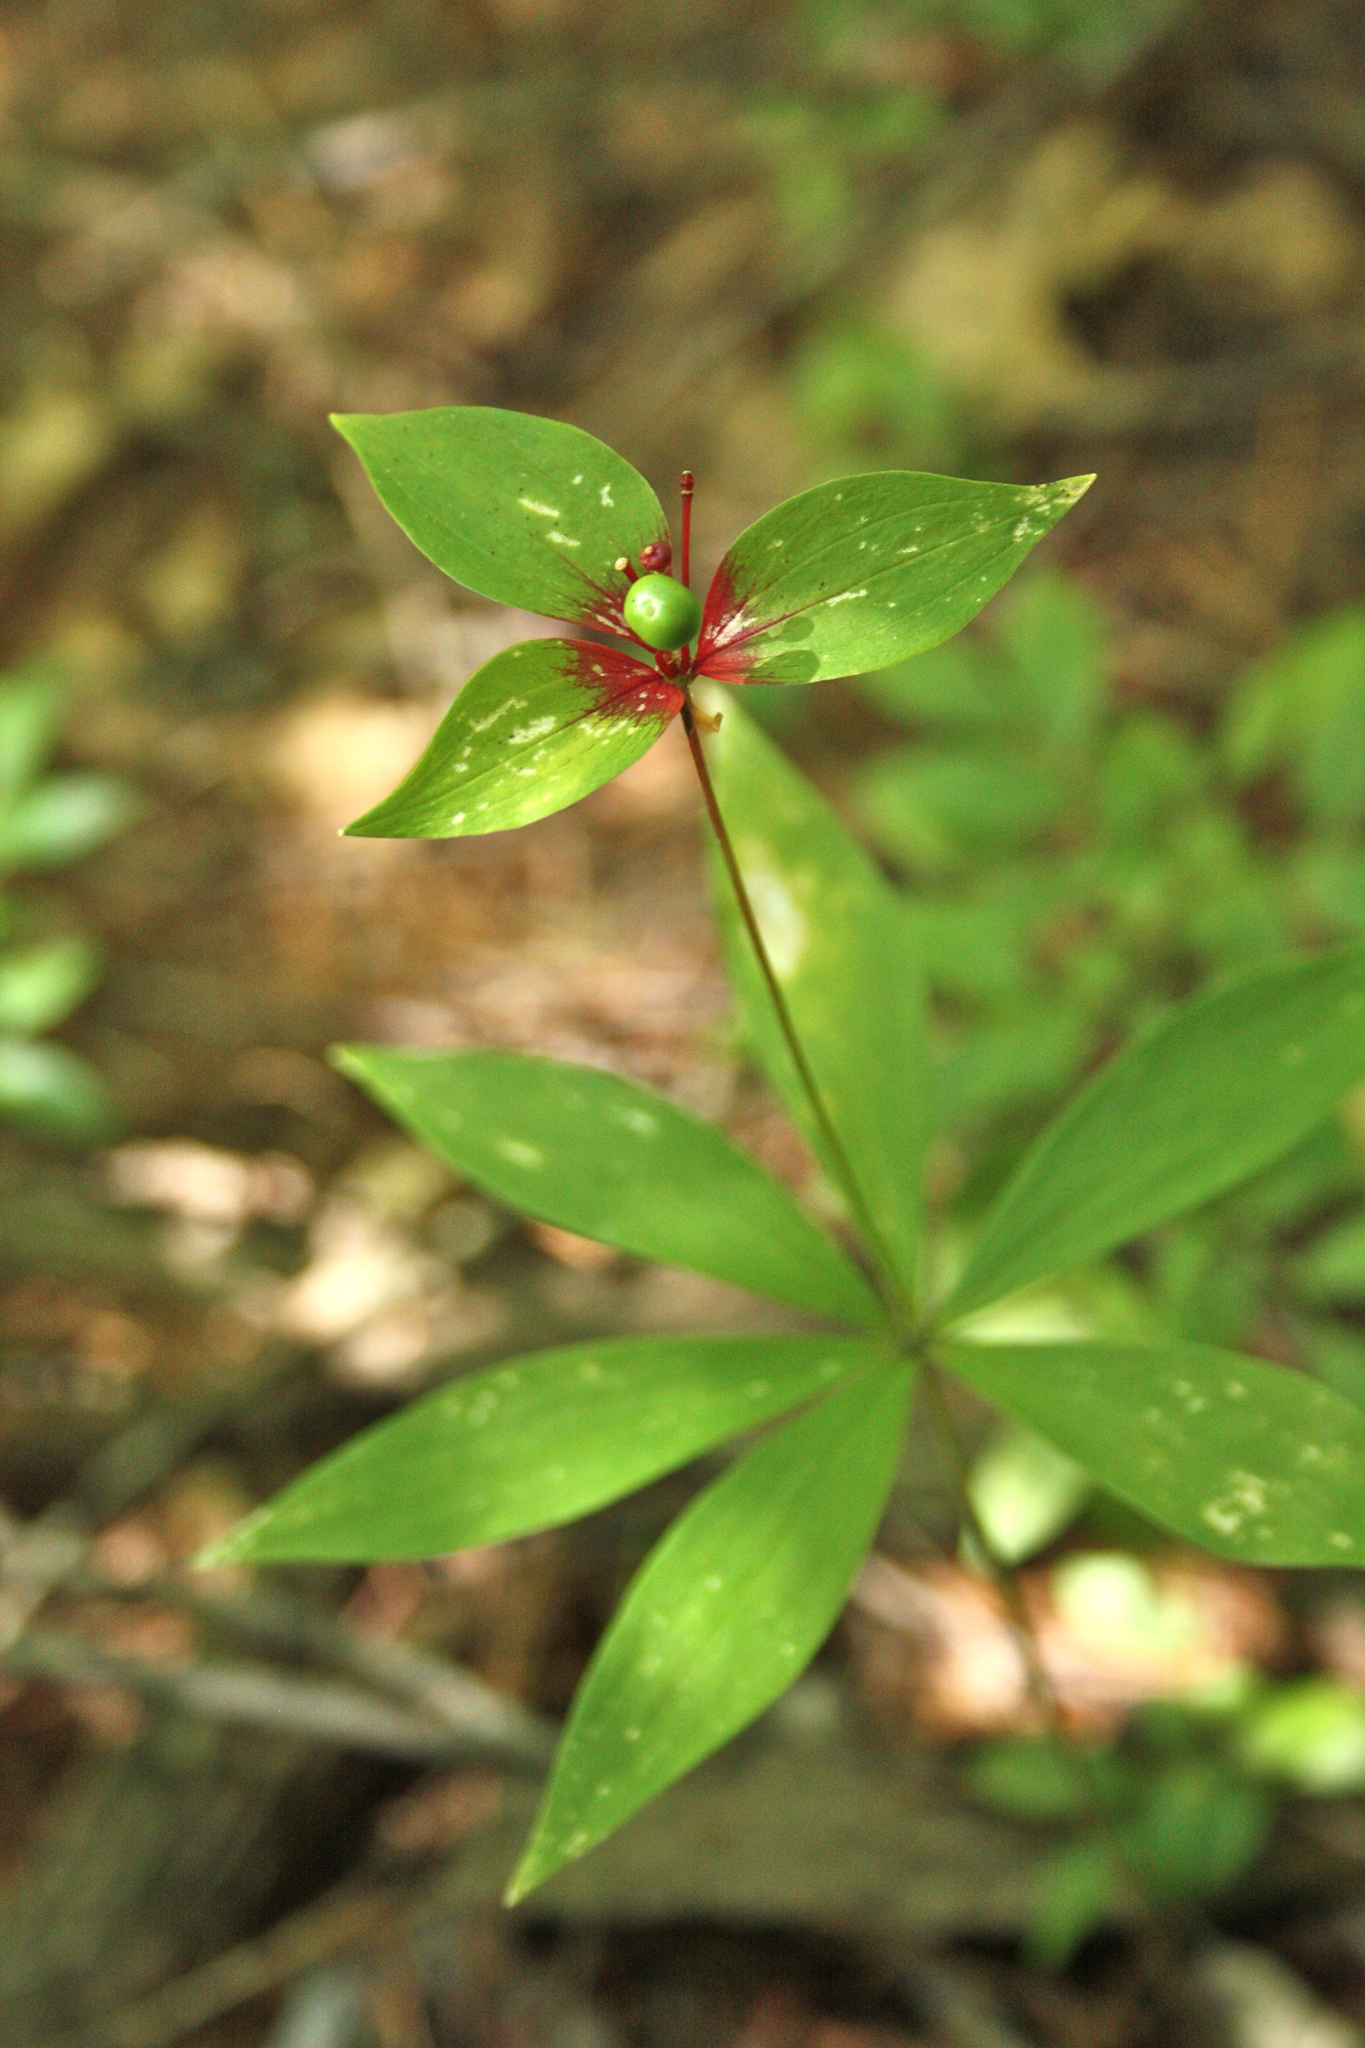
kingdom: Plantae
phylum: Tracheophyta
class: Liliopsida
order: Liliales
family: Liliaceae
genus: Medeola
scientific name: Medeola virginiana
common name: Indian cucumber-root
